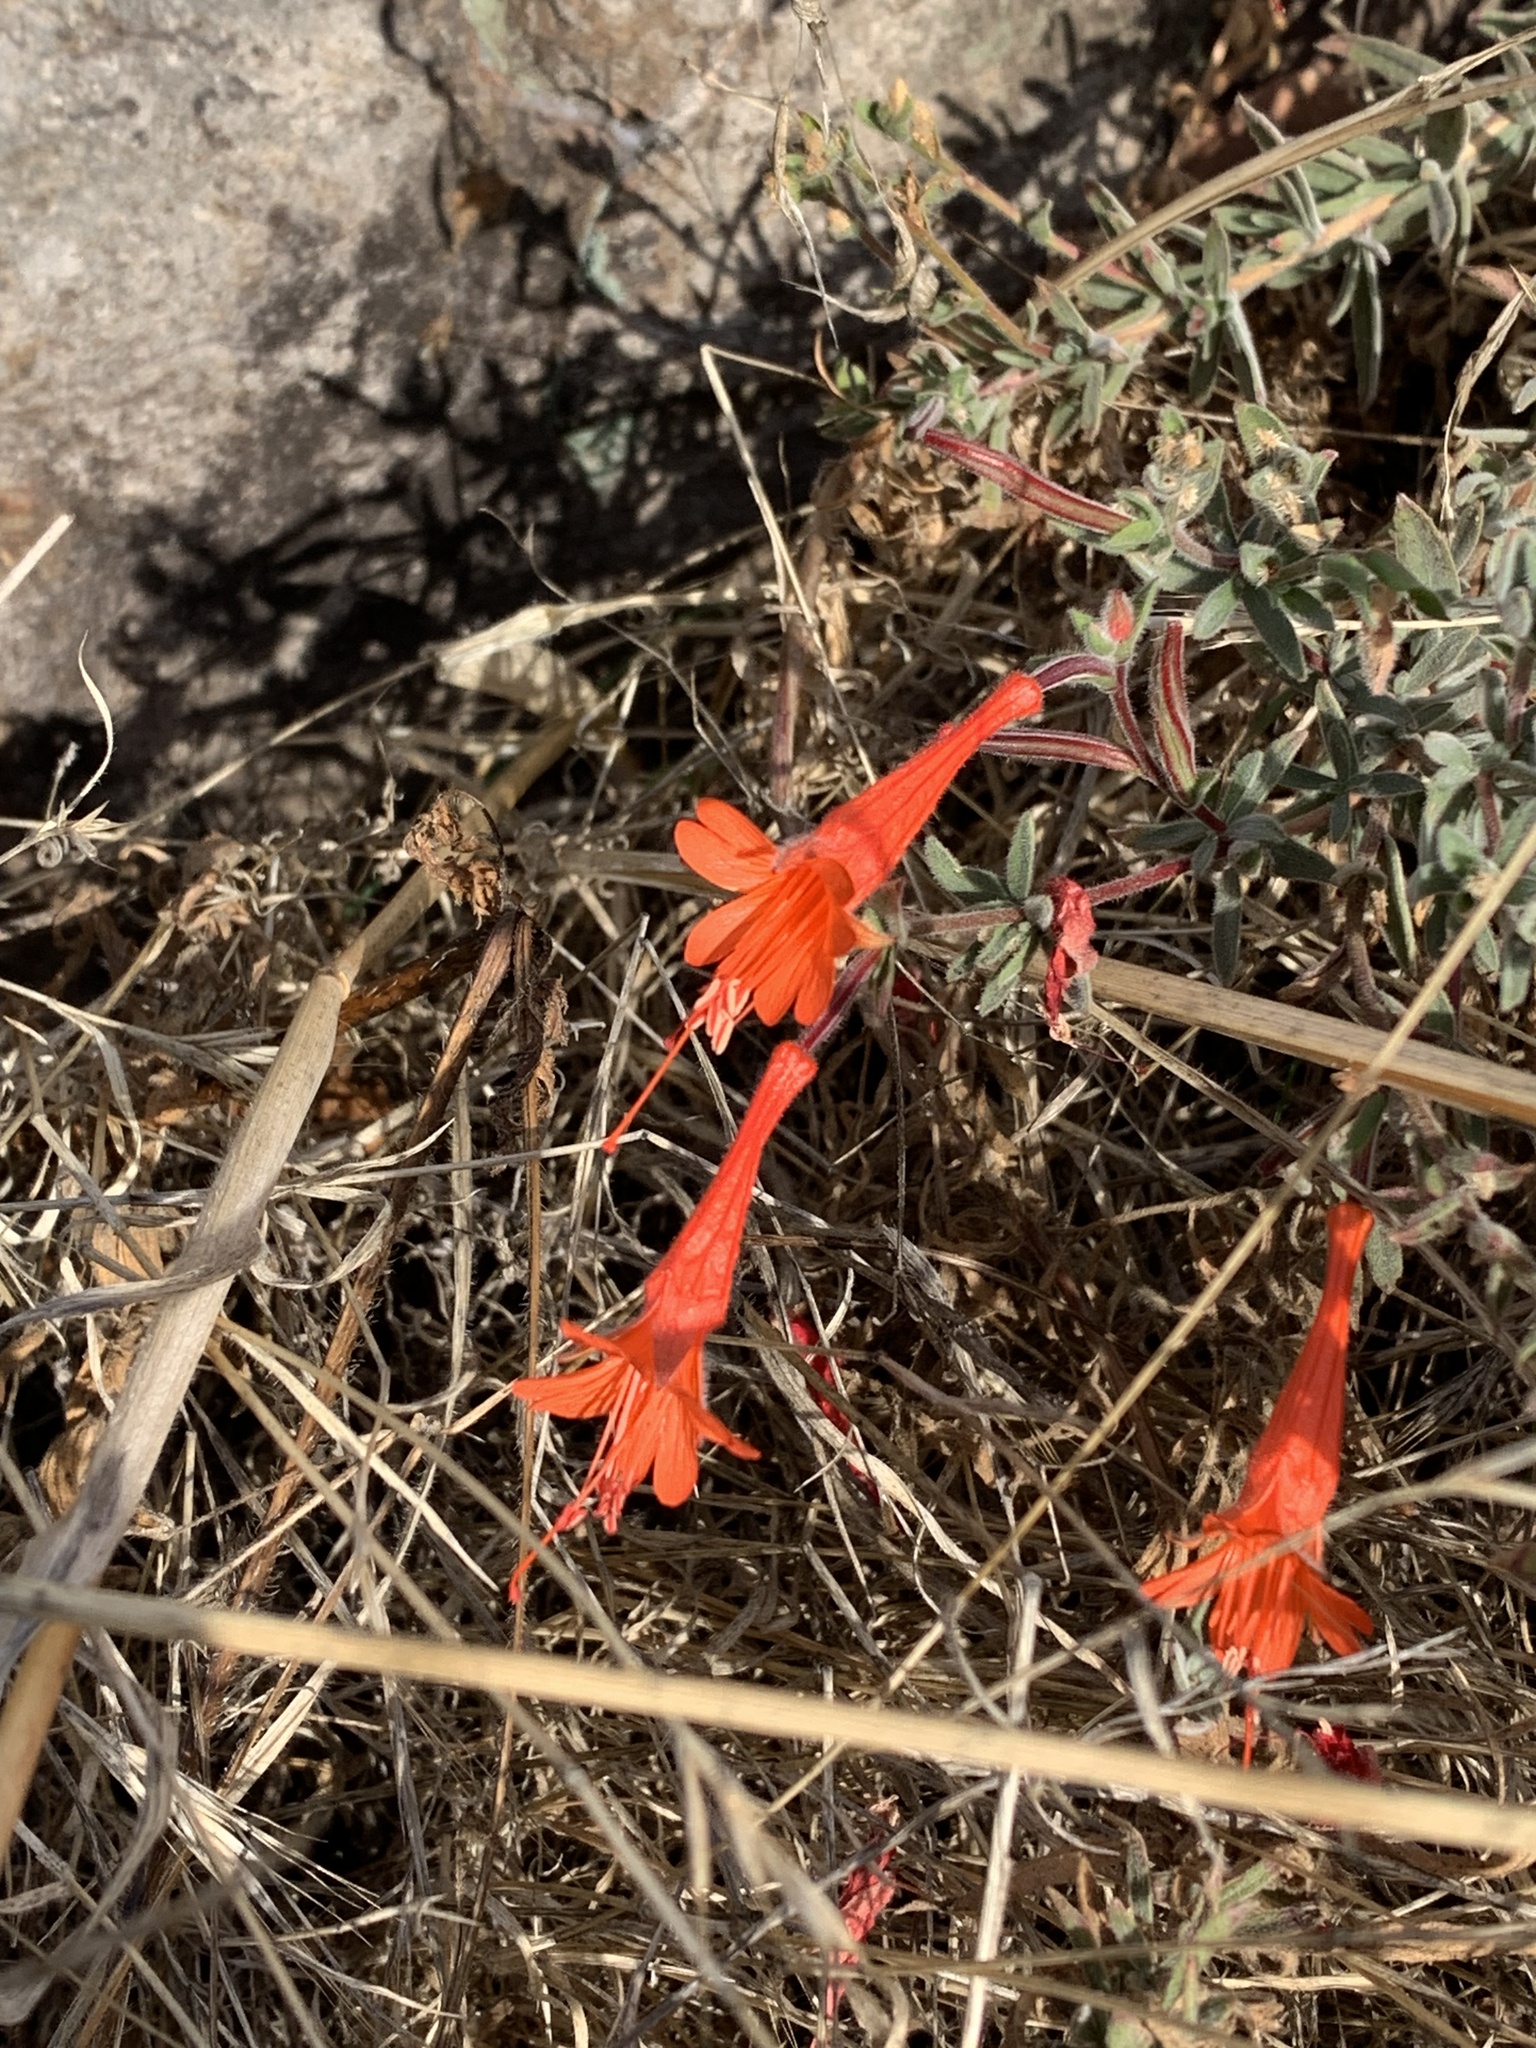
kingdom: Plantae
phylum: Tracheophyta
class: Magnoliopsida
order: Myrtales
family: Onagraceae
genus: Epilobium
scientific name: Epilobium canum
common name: California-fuchsia
